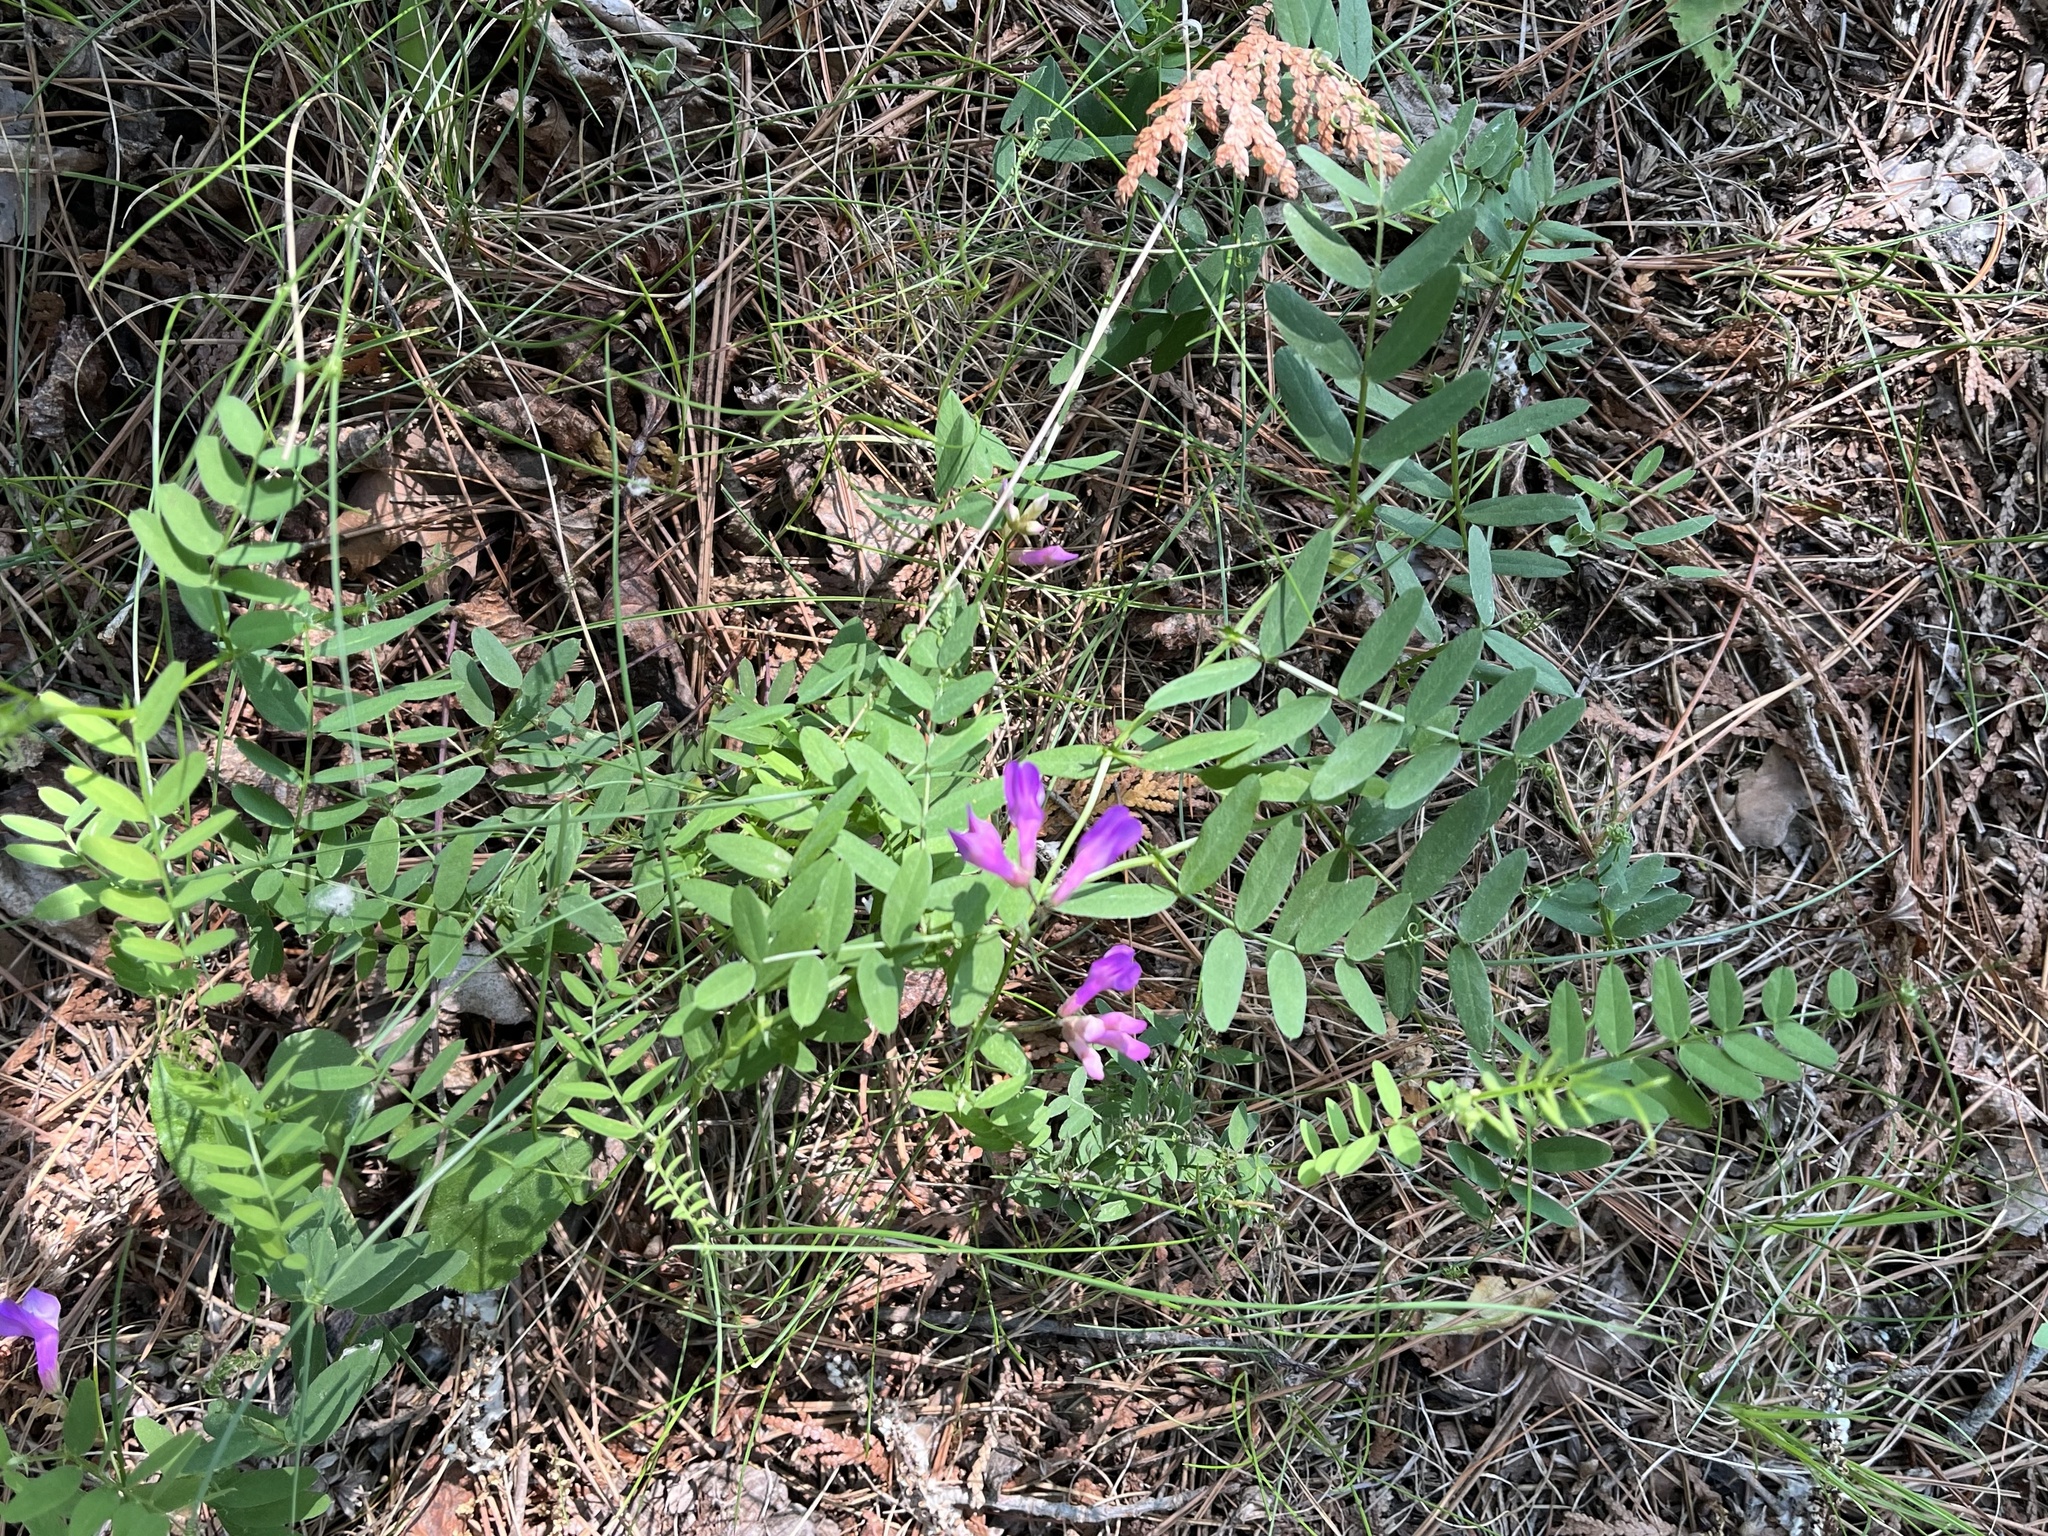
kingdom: Plantae
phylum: Tracheophyta
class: Magnoliopsida
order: Fabales
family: Fabaceae
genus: Vicia
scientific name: Vicia americana
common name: American vetch
